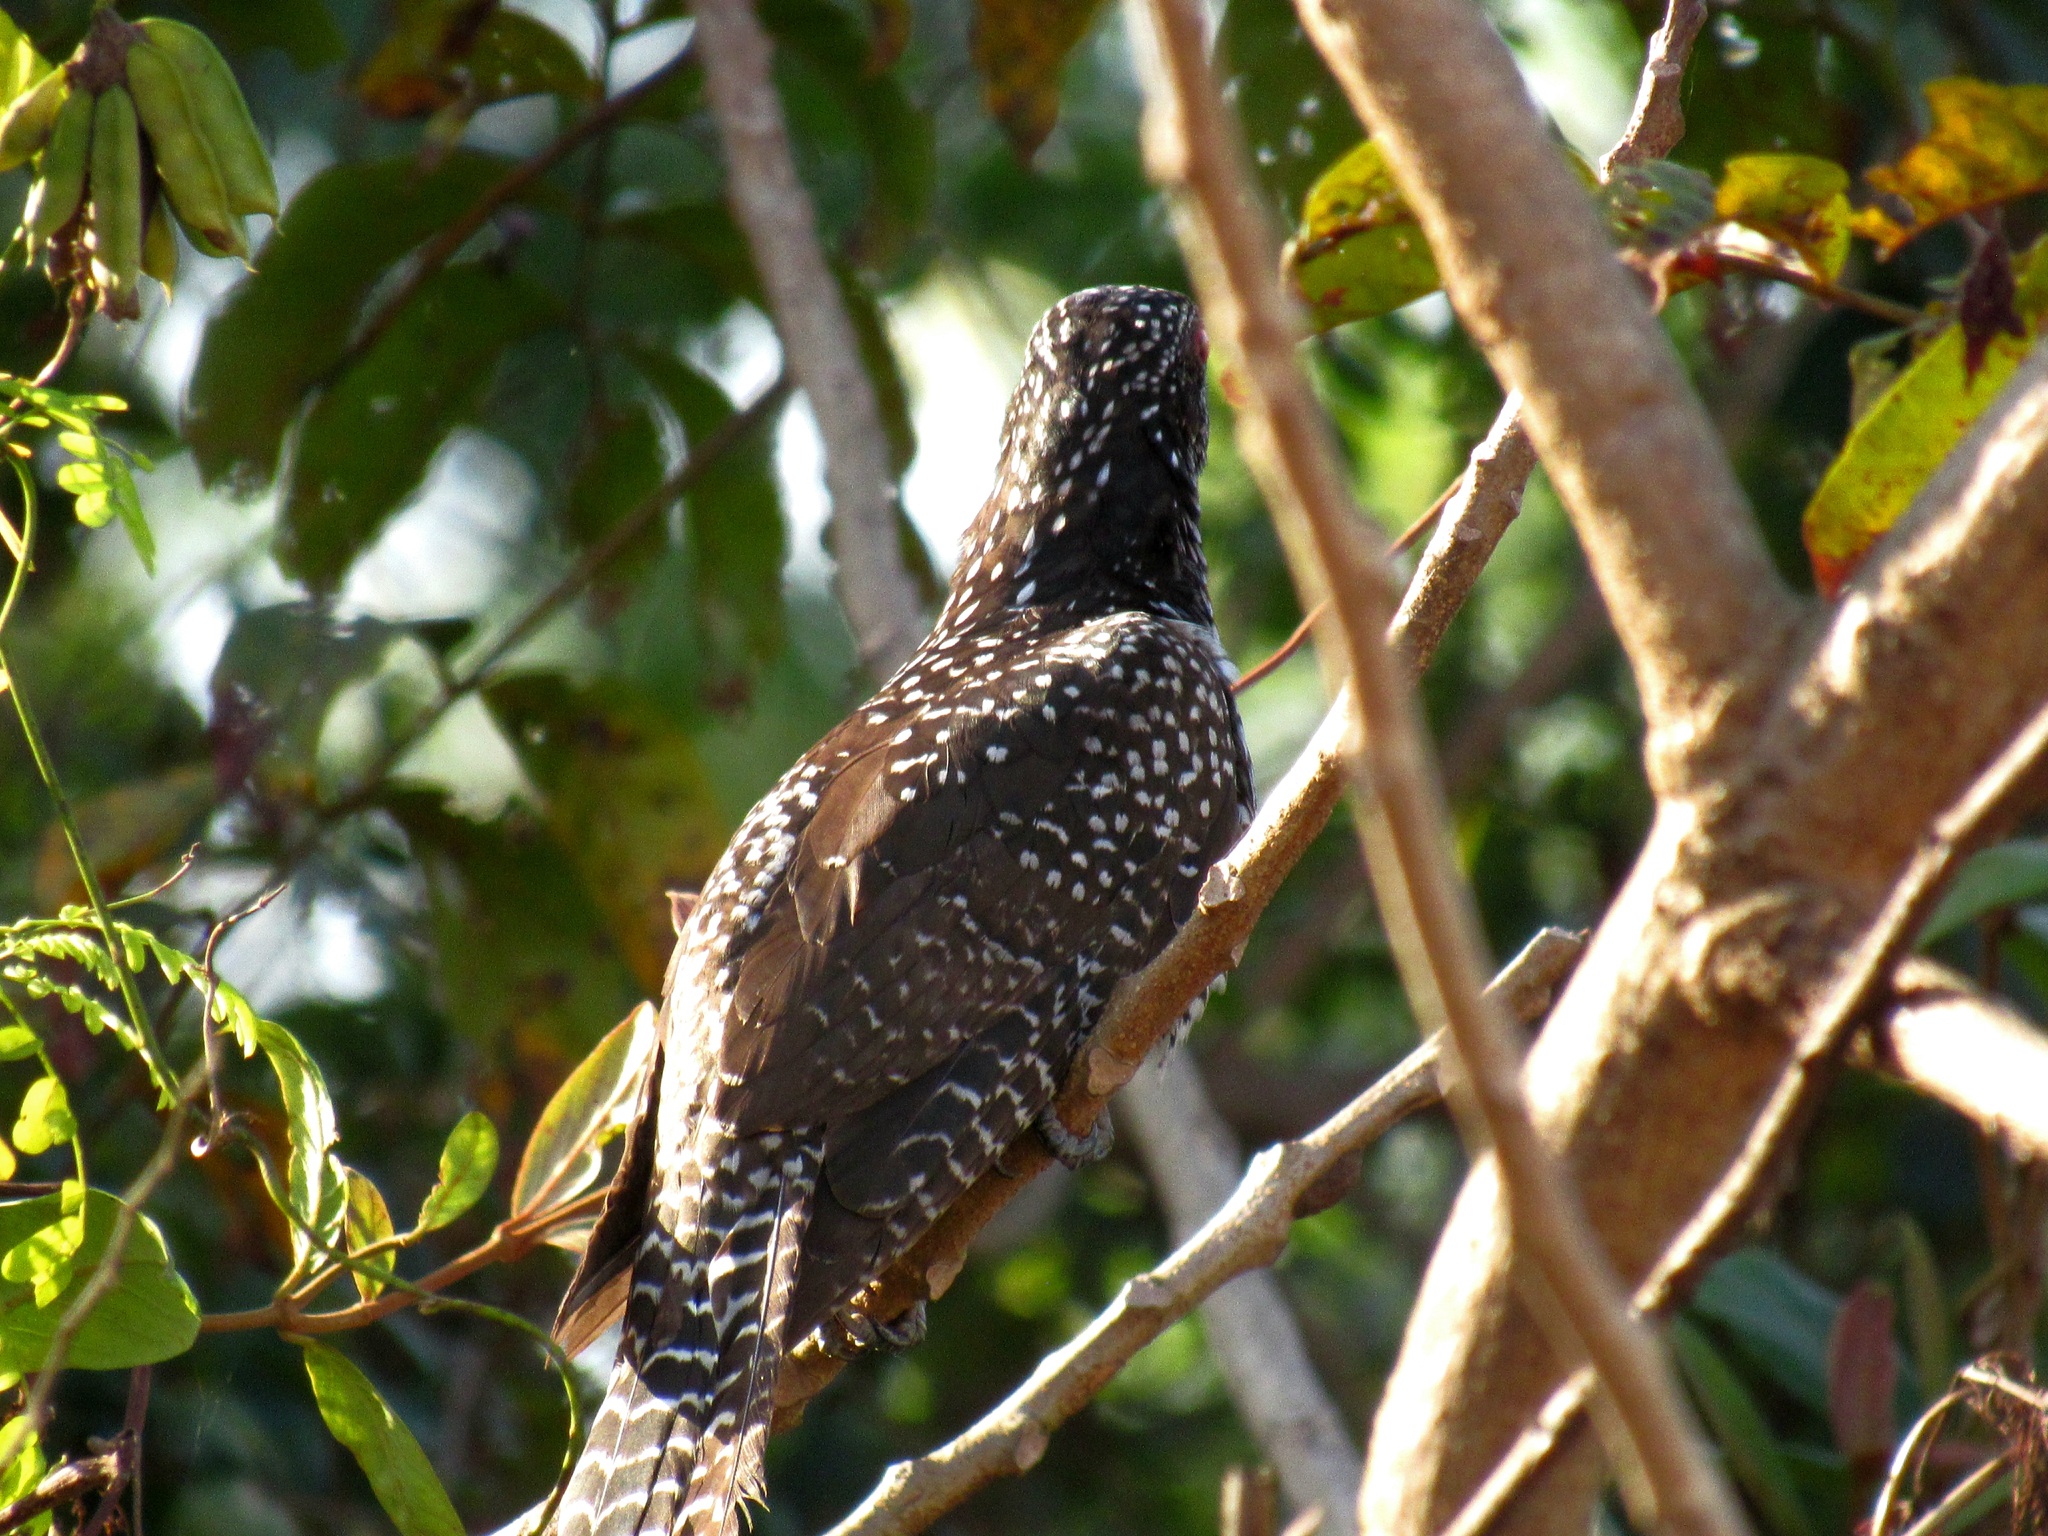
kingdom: Animalia
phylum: Chordata
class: Aves
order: Cuculiformes
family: Cuculidae
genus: Eudynamys
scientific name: Eudynamys scolopaceus
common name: Asian koel
